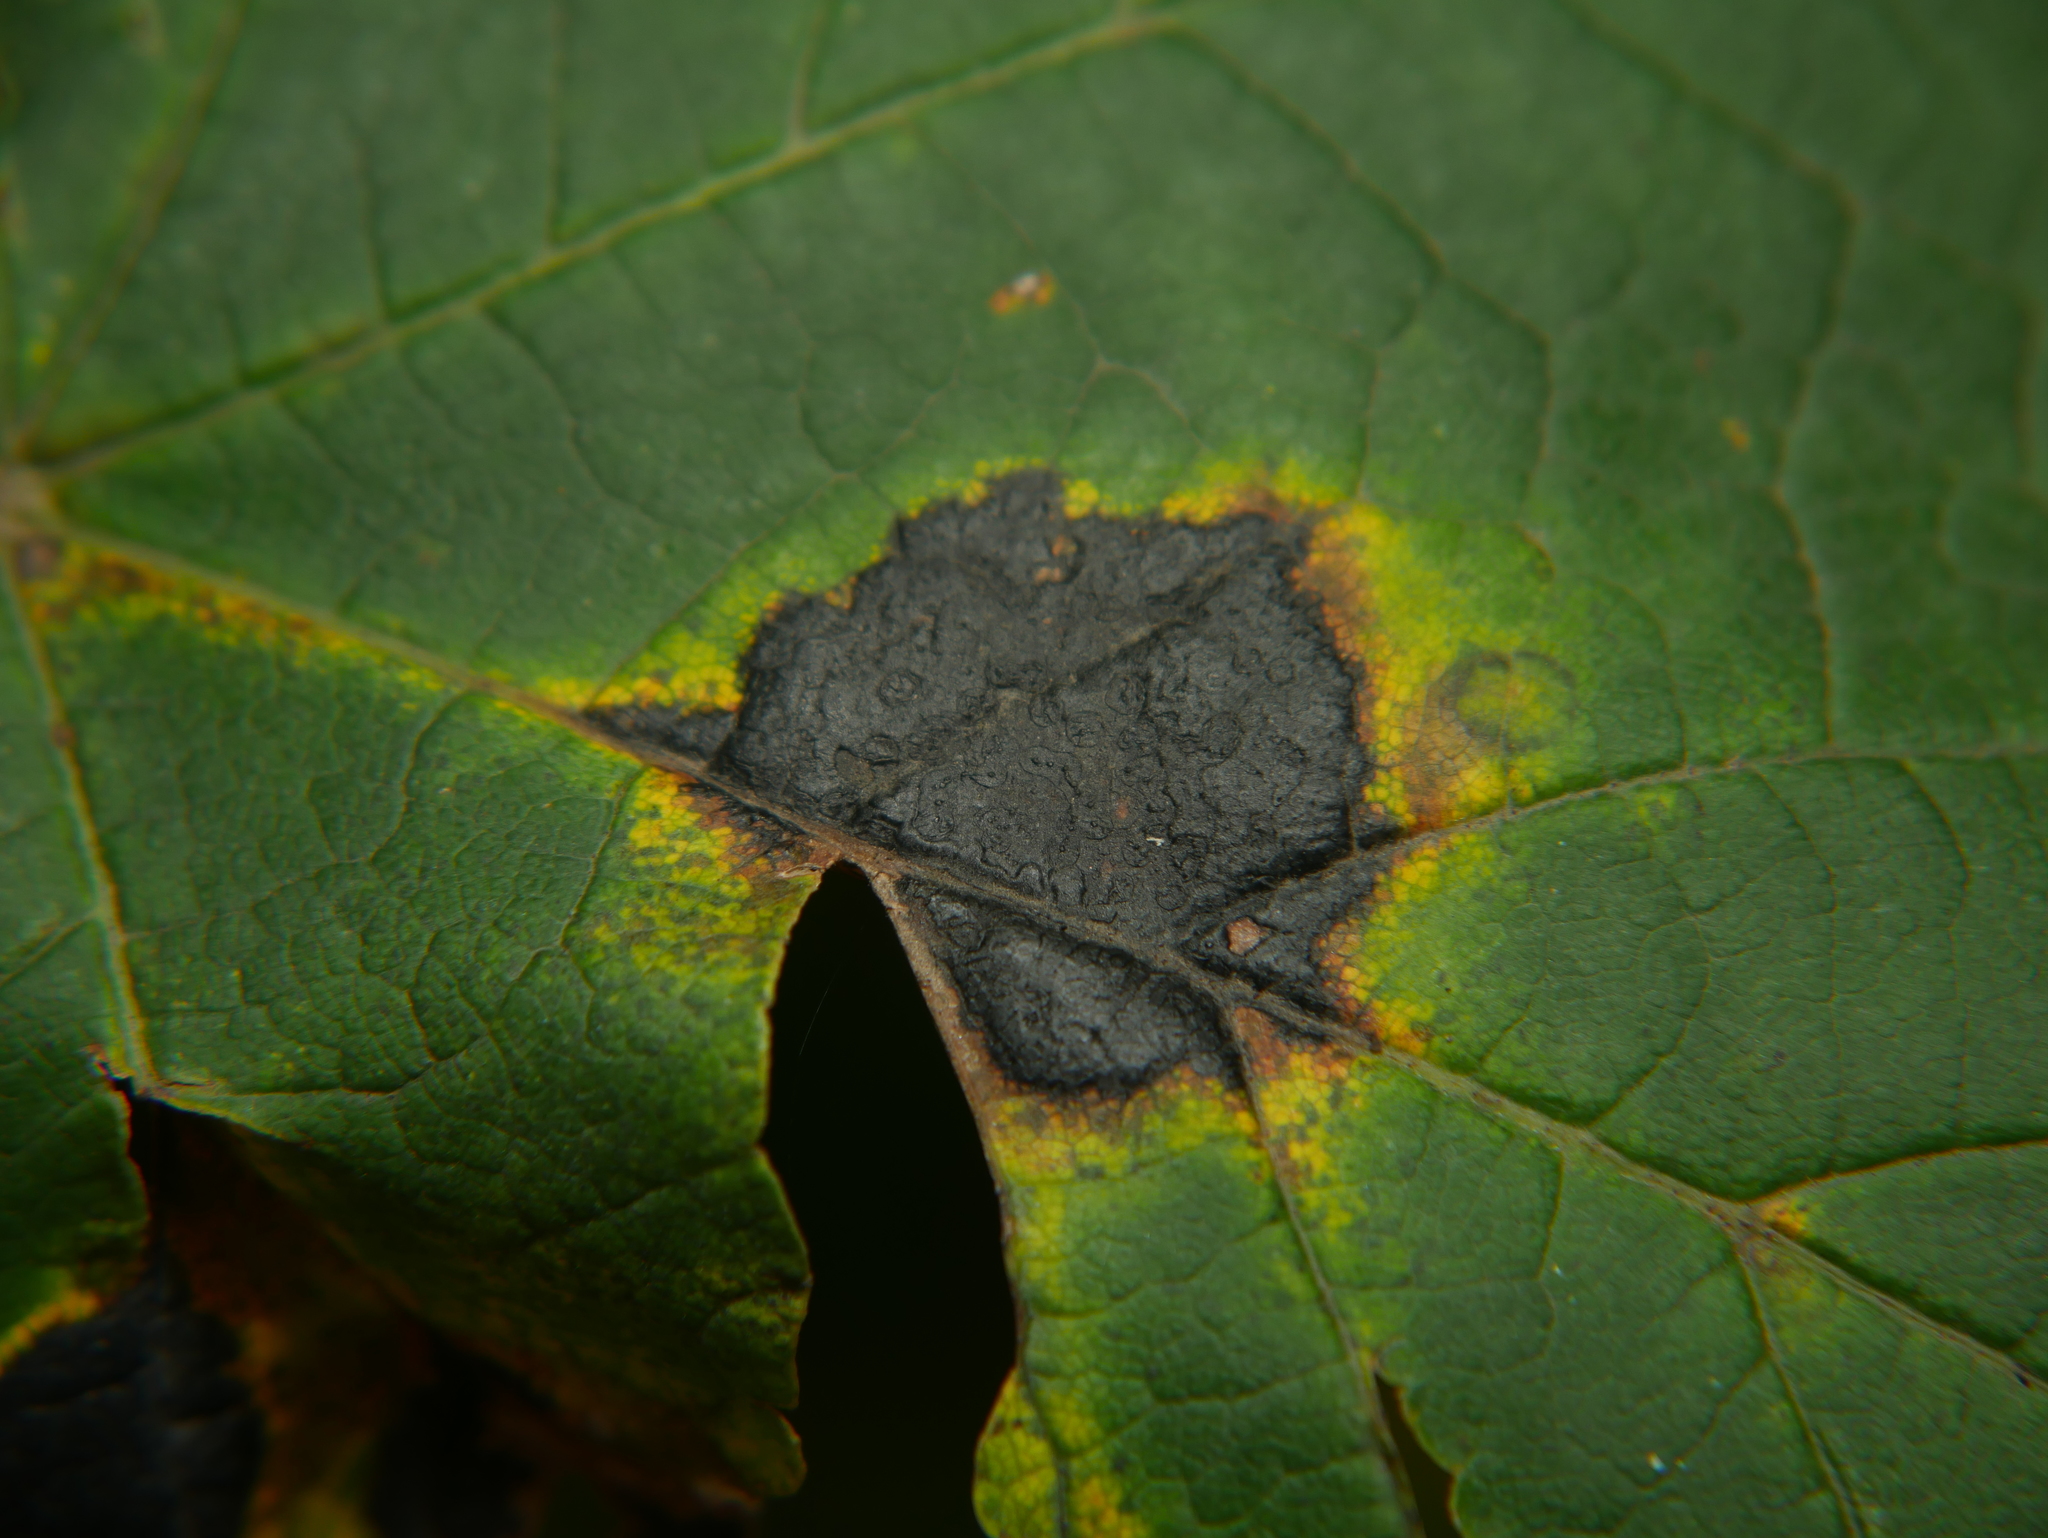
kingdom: Fungi
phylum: Ascomycota
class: Leotiomycetes
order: Rhytismatales
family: Rhytismataceae
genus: Rhytisma
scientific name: Rhytisma acerinum
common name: European tar spot
